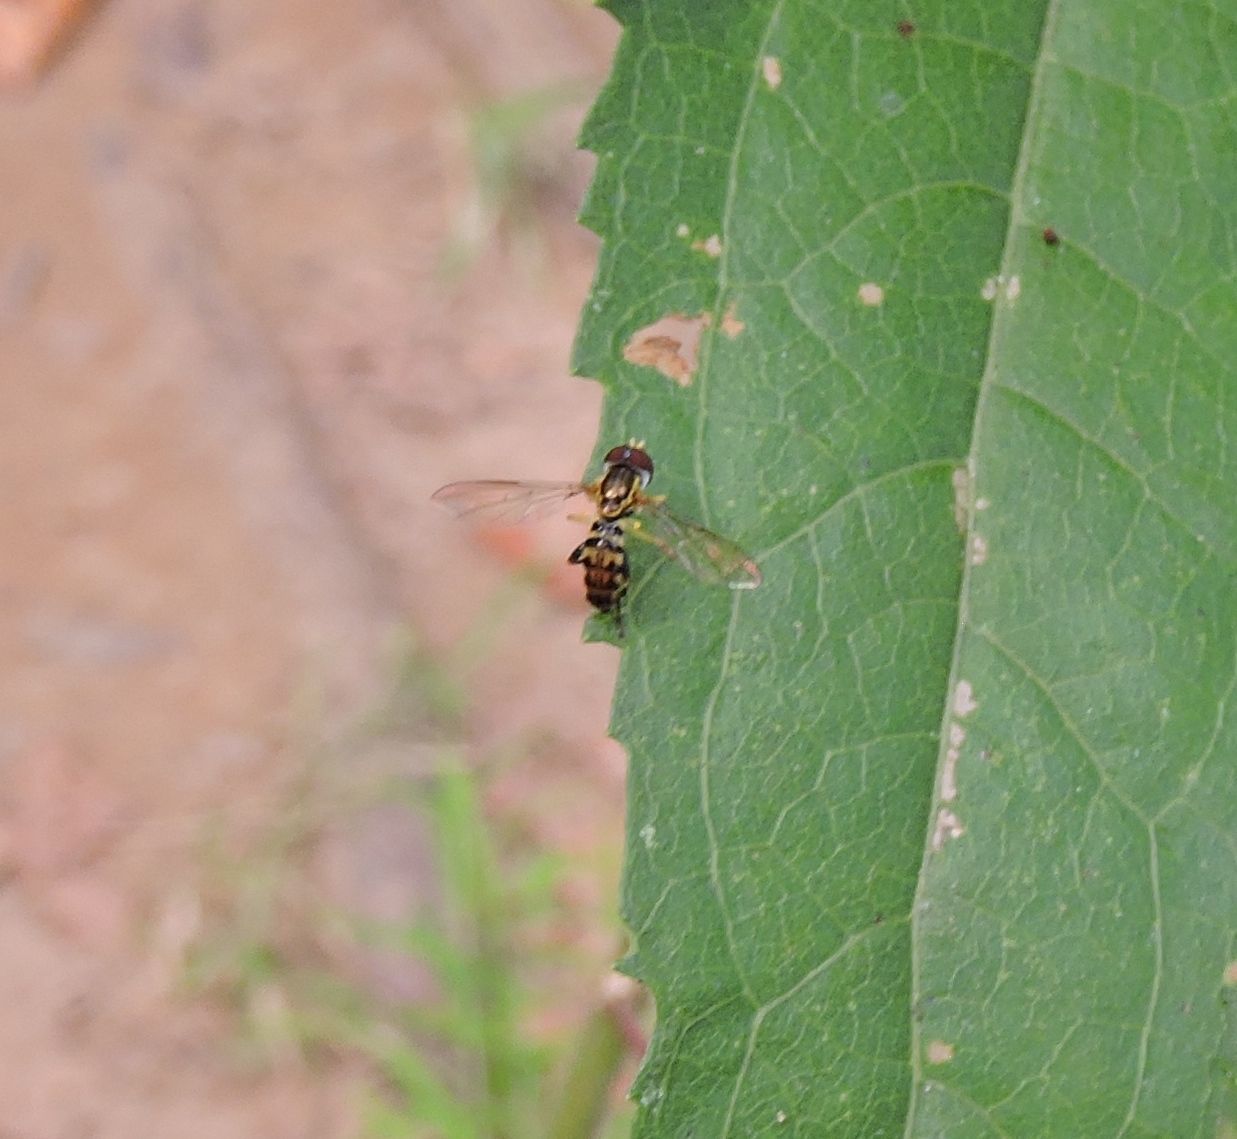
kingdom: Animalia
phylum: Arthropoda
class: Insecta
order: Diptera
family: Syrphidae
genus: Toxomerus
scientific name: Toxomerus geminatus
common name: Eastern calligrapher
